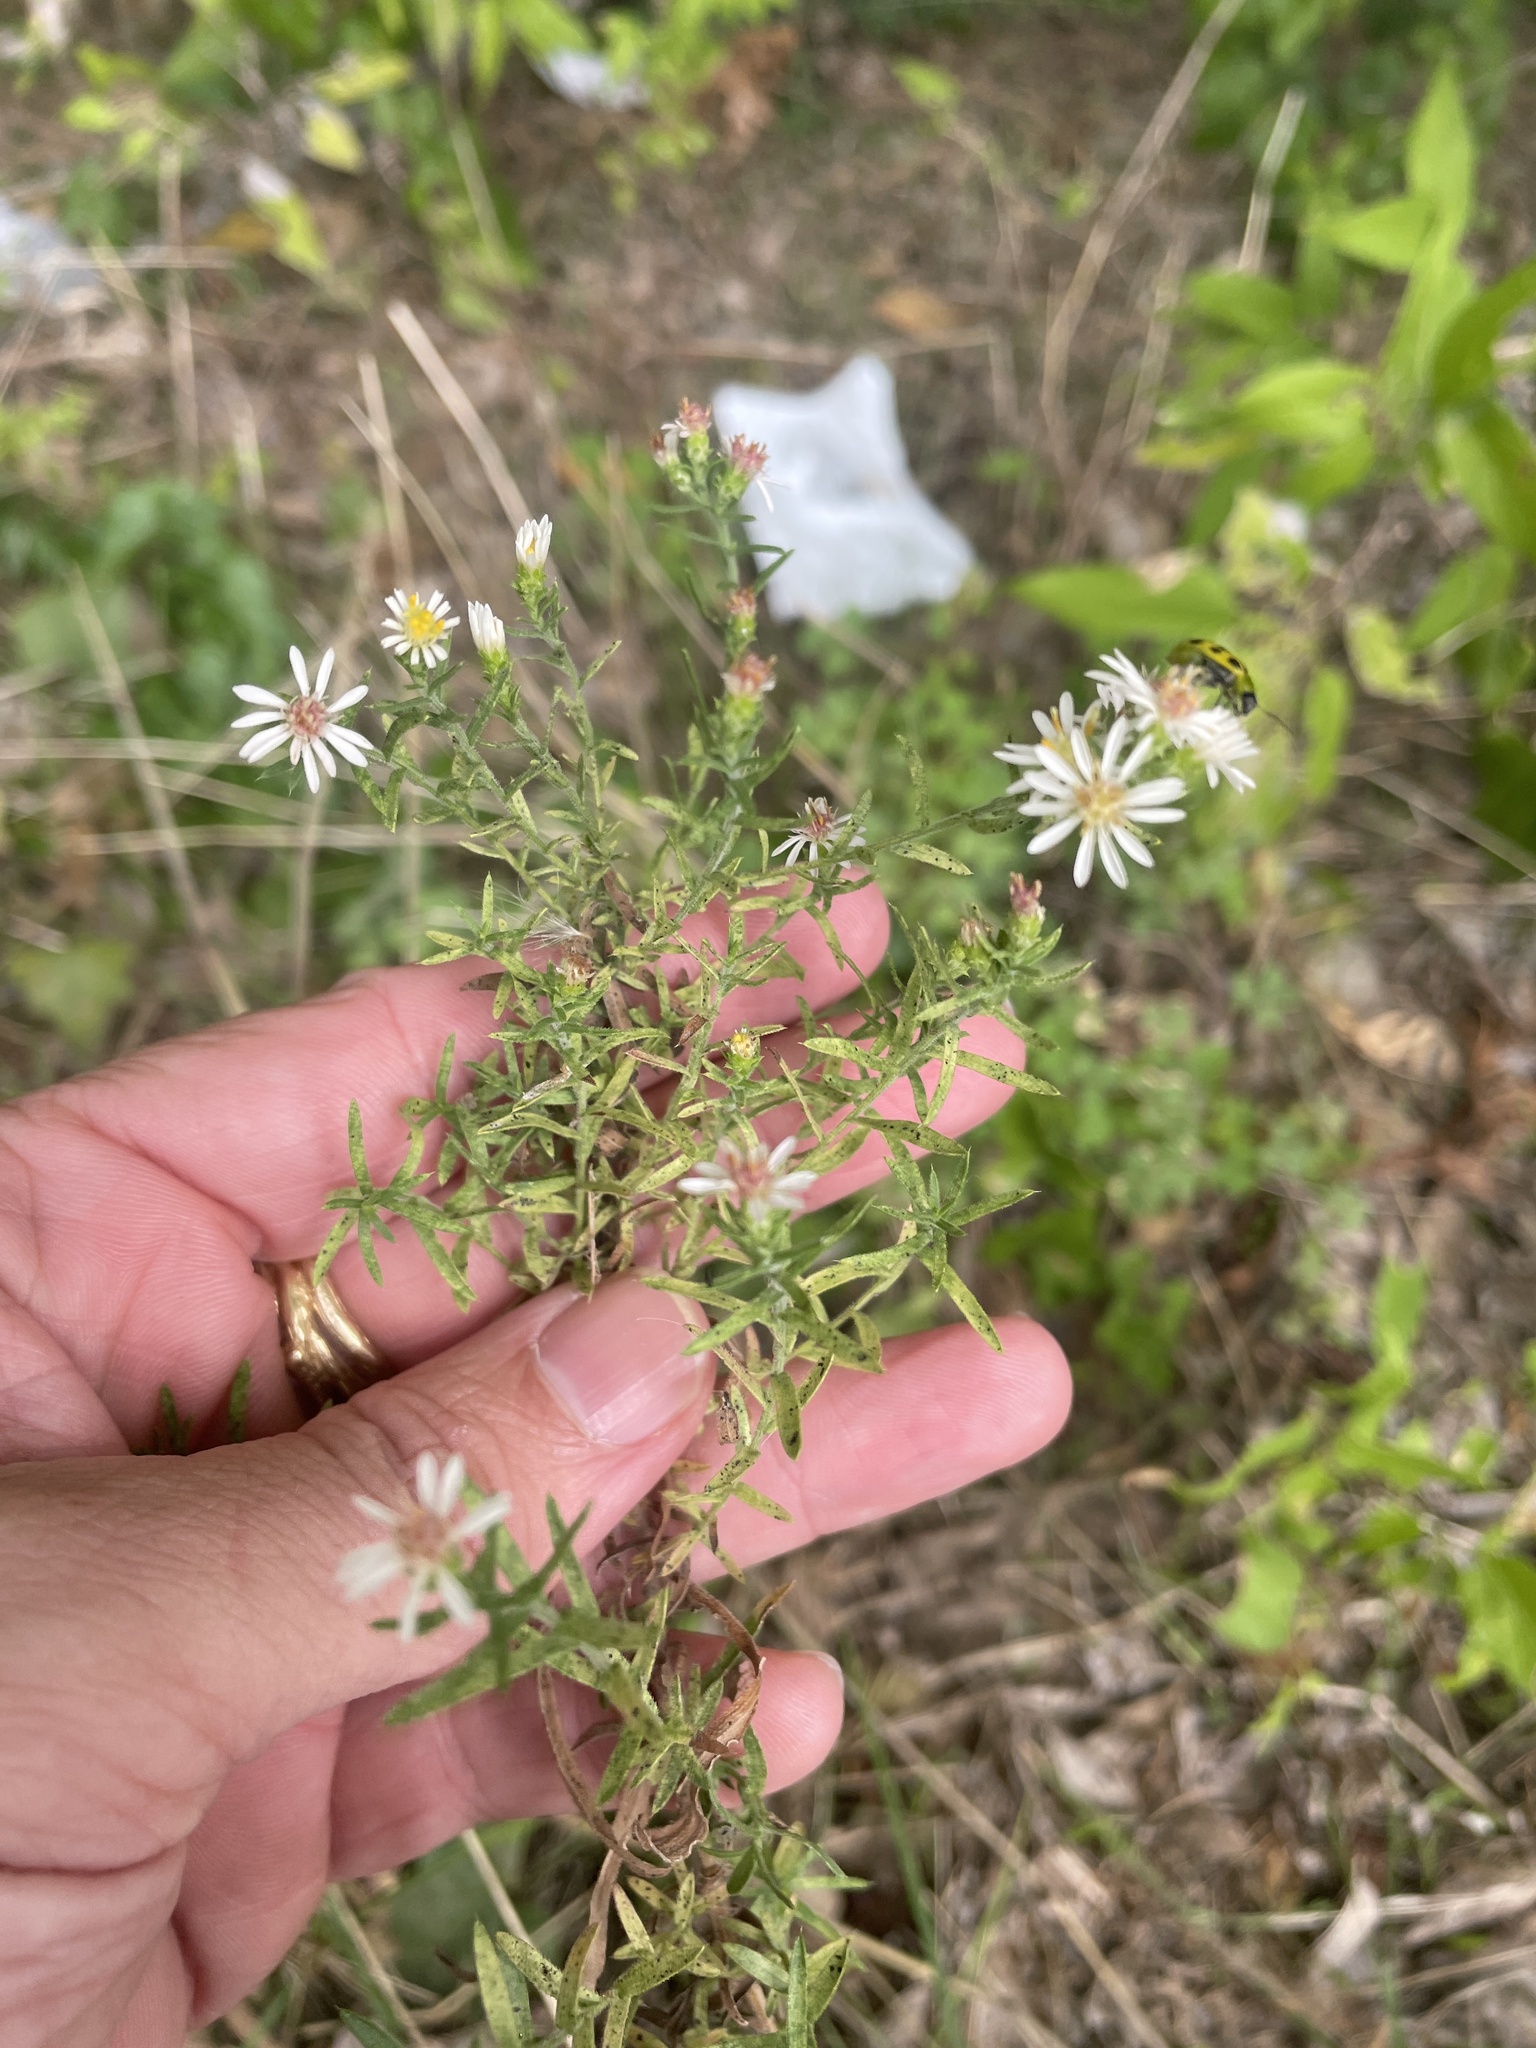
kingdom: Plantae
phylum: Tracheophyta
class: Magnoliopsida
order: Asterales
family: Asteraceae
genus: Symphyotrichum
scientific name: Symphyotrichum ericoides
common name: Heath aster
